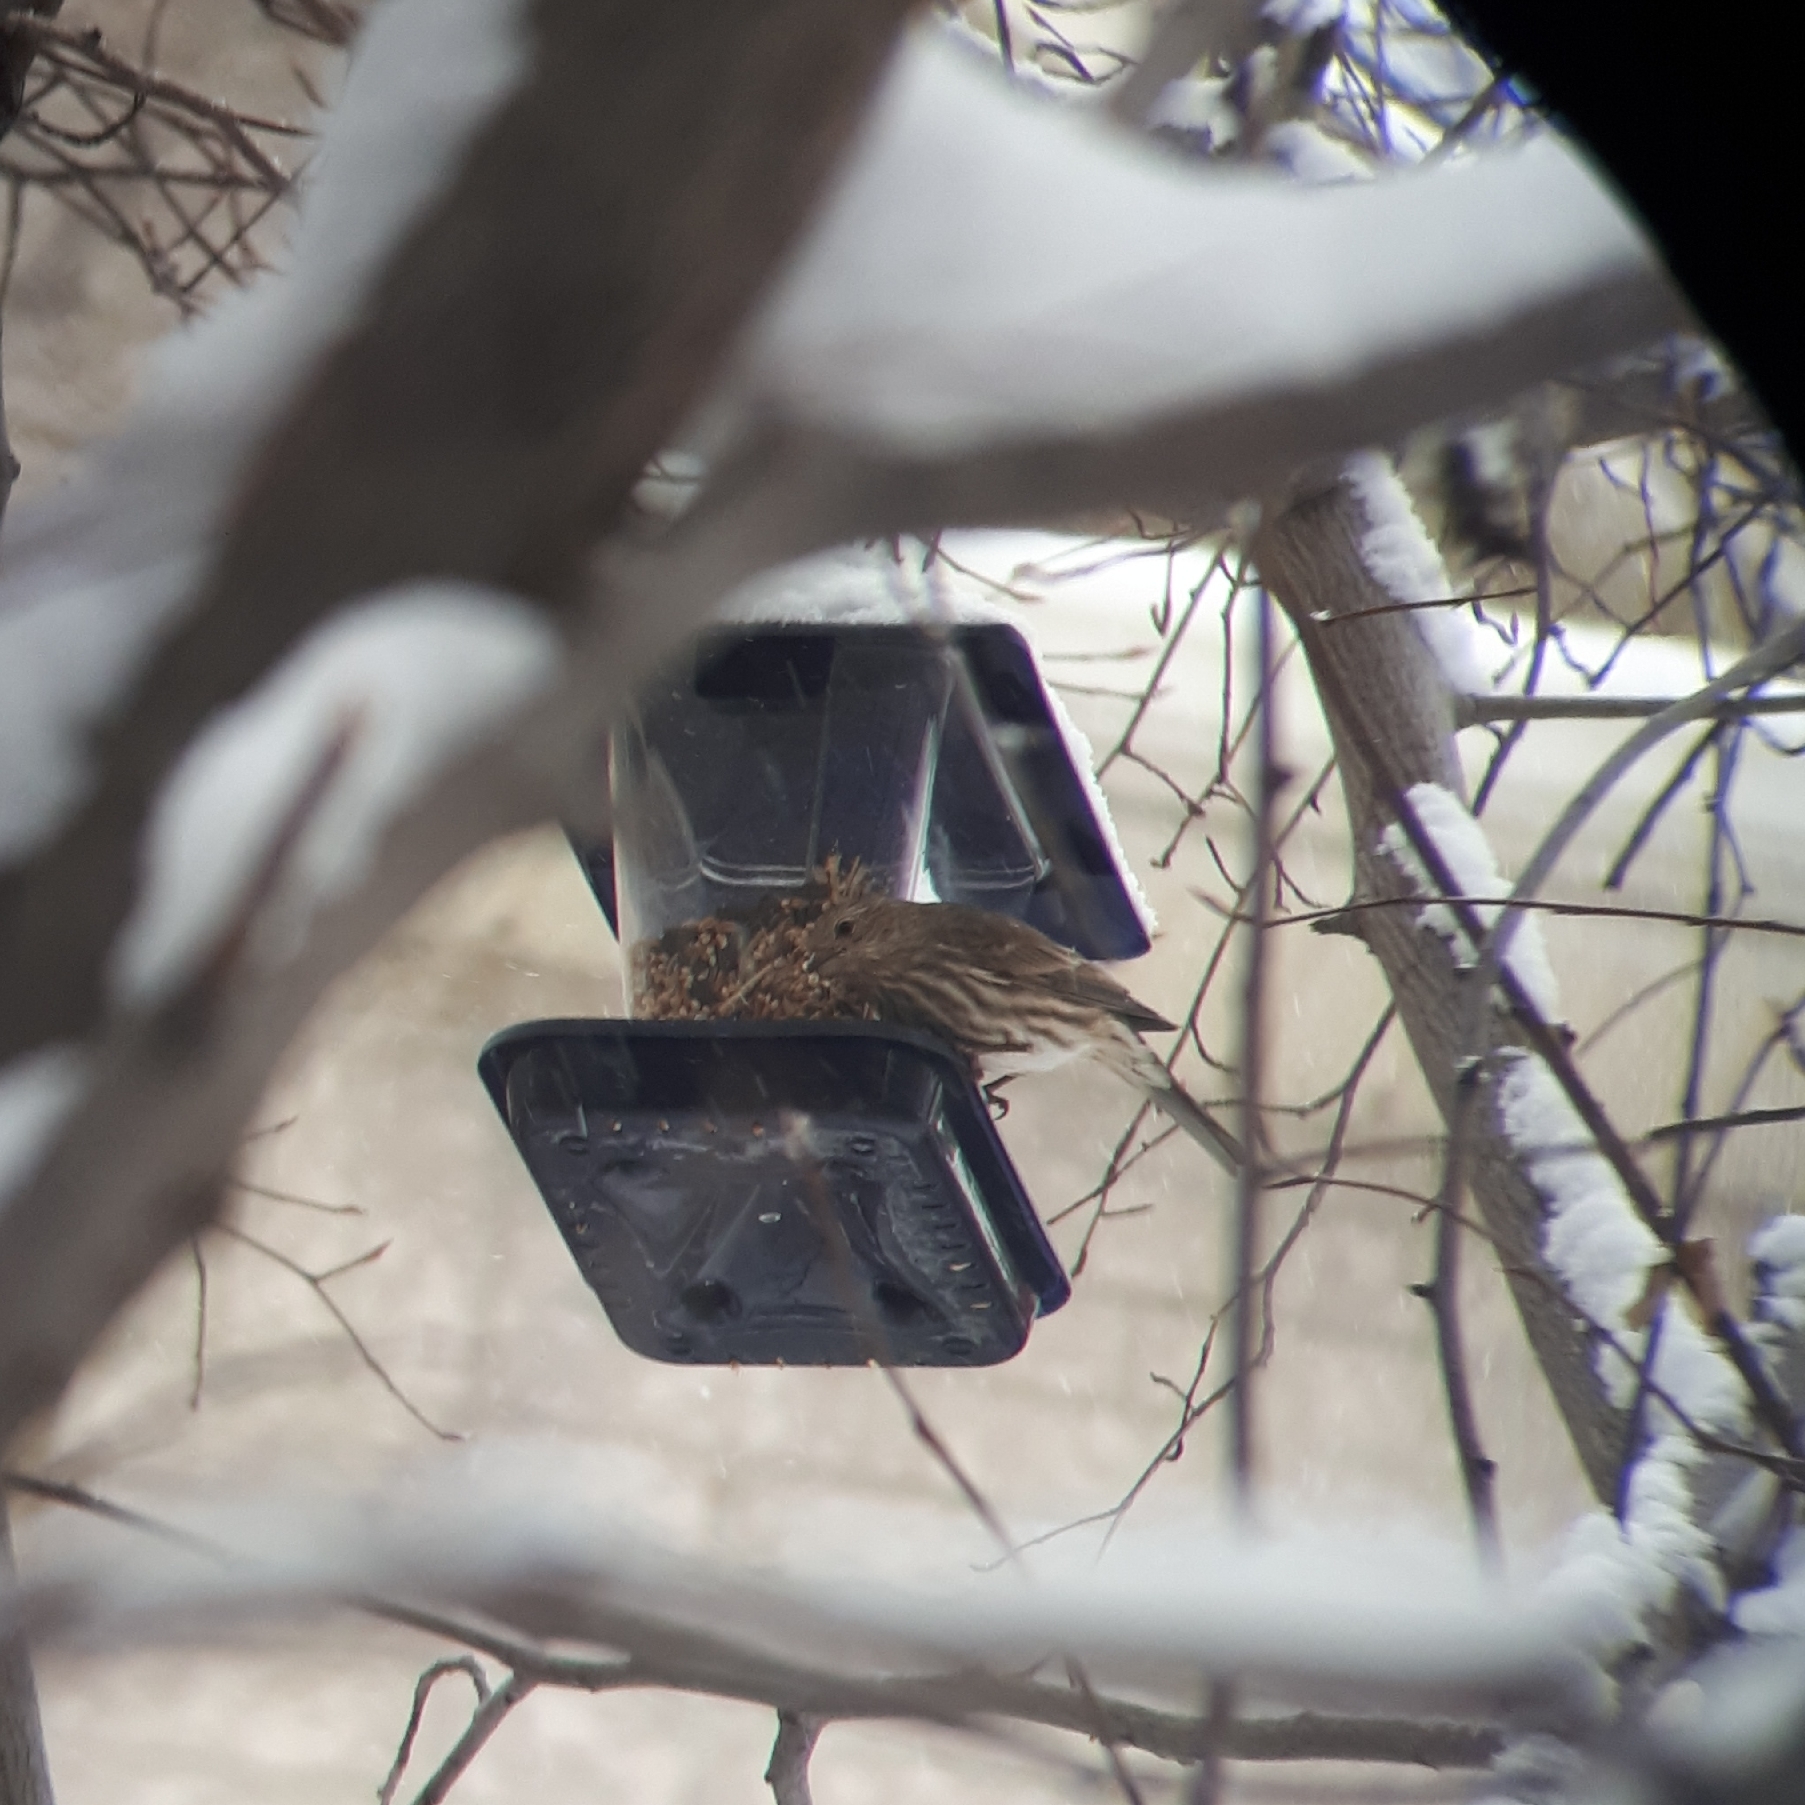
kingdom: Animalia
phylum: Chordata
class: Aves
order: Passeriformes
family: Fringillidae
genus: Haemorhous
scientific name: Haemorhous mexicanus
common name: House finch
